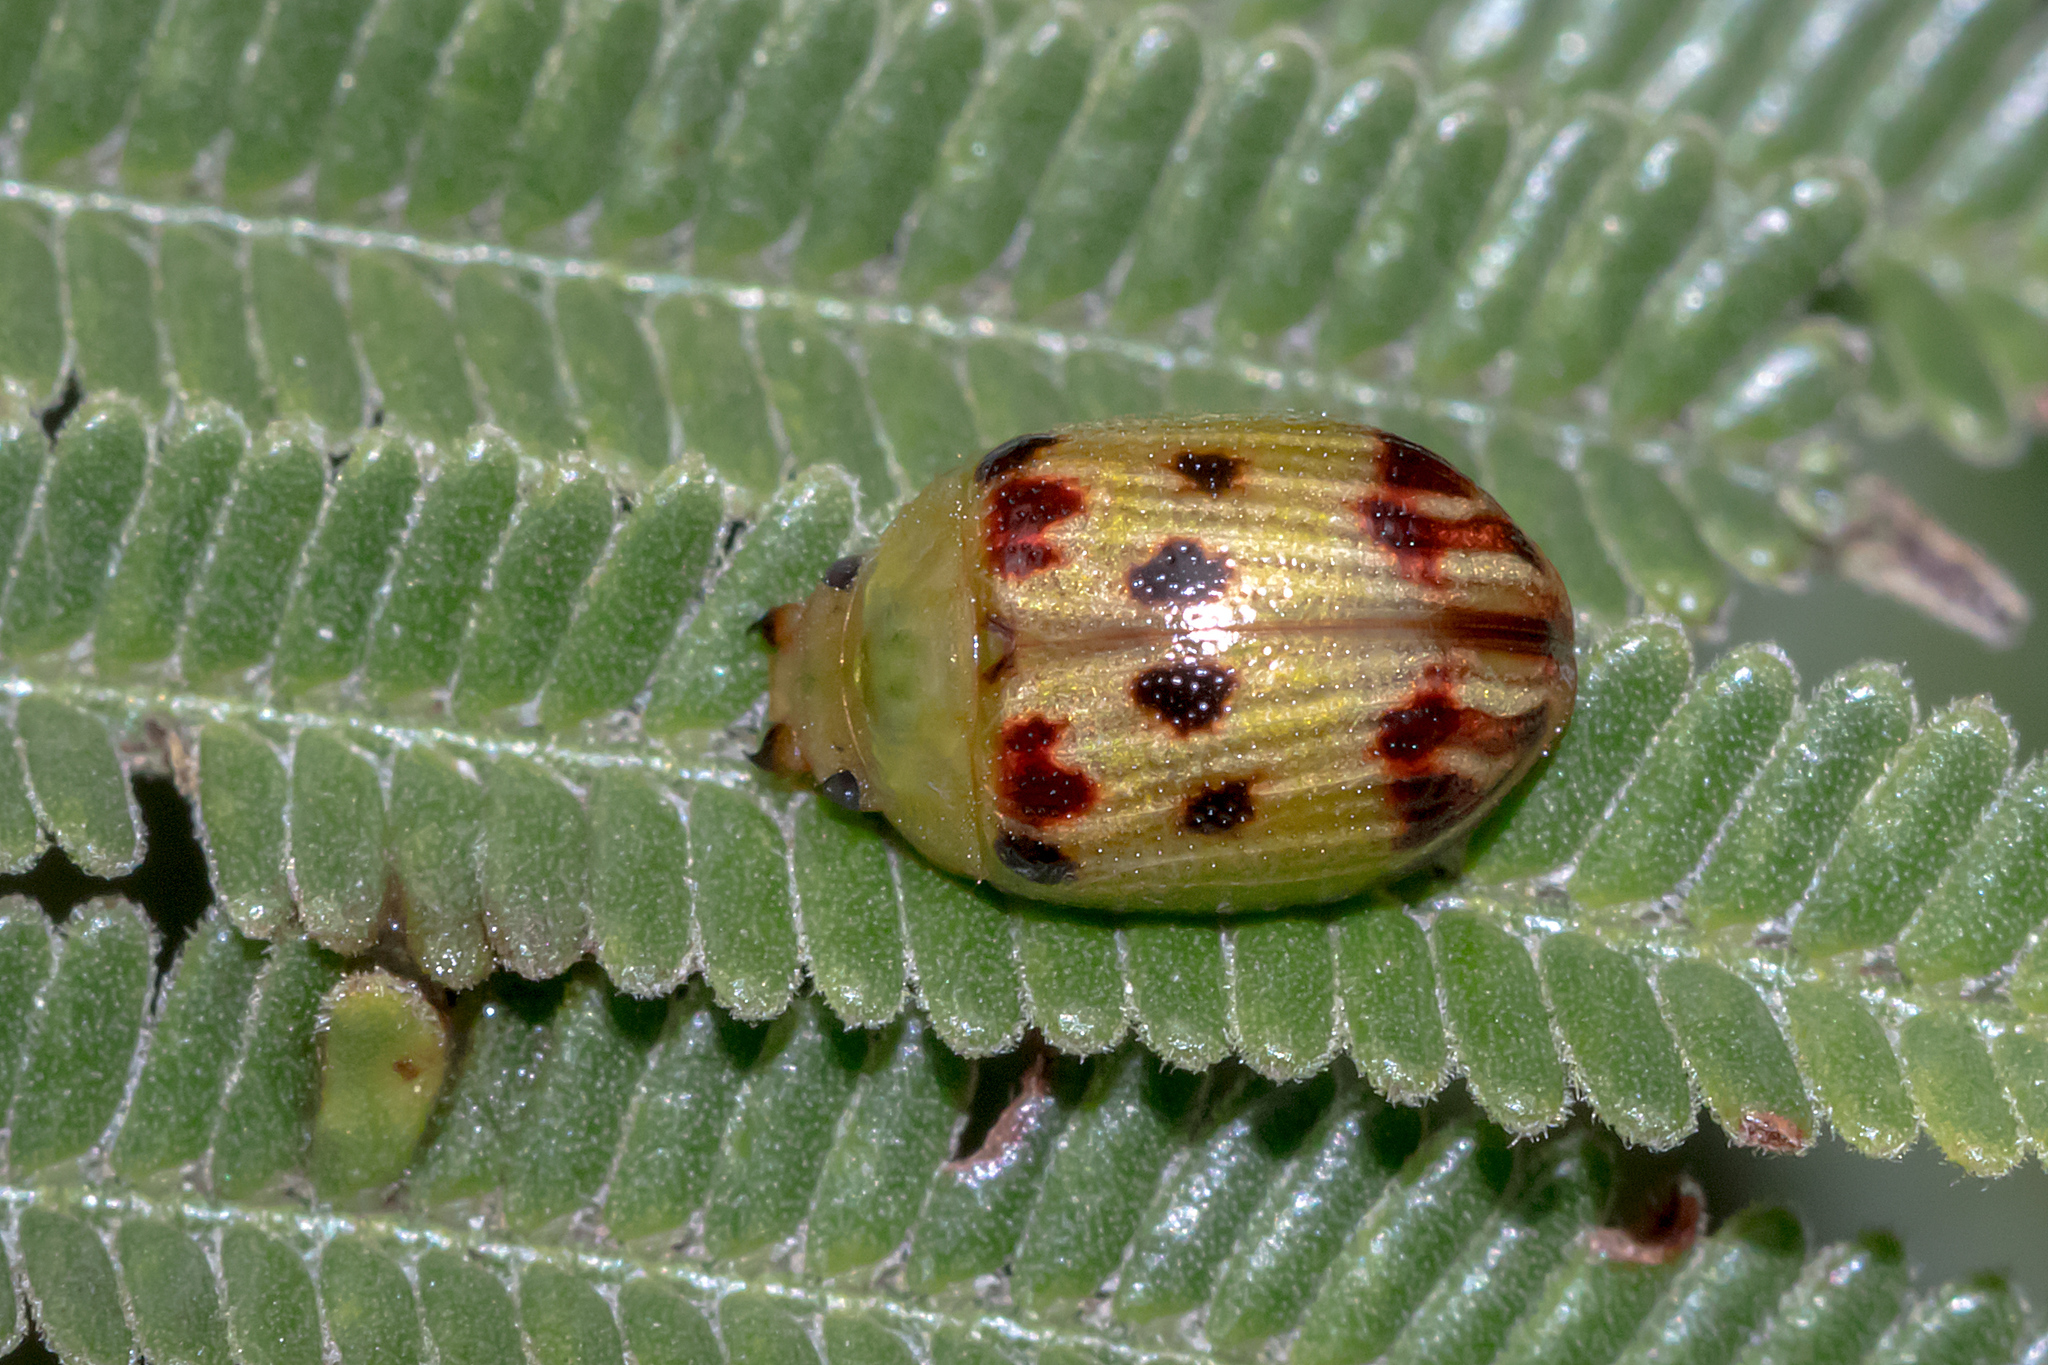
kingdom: Animalia
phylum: Arthropoda
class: Insecta
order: Coleoptera
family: Chrysomelidae
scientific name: Chrysomelidae
